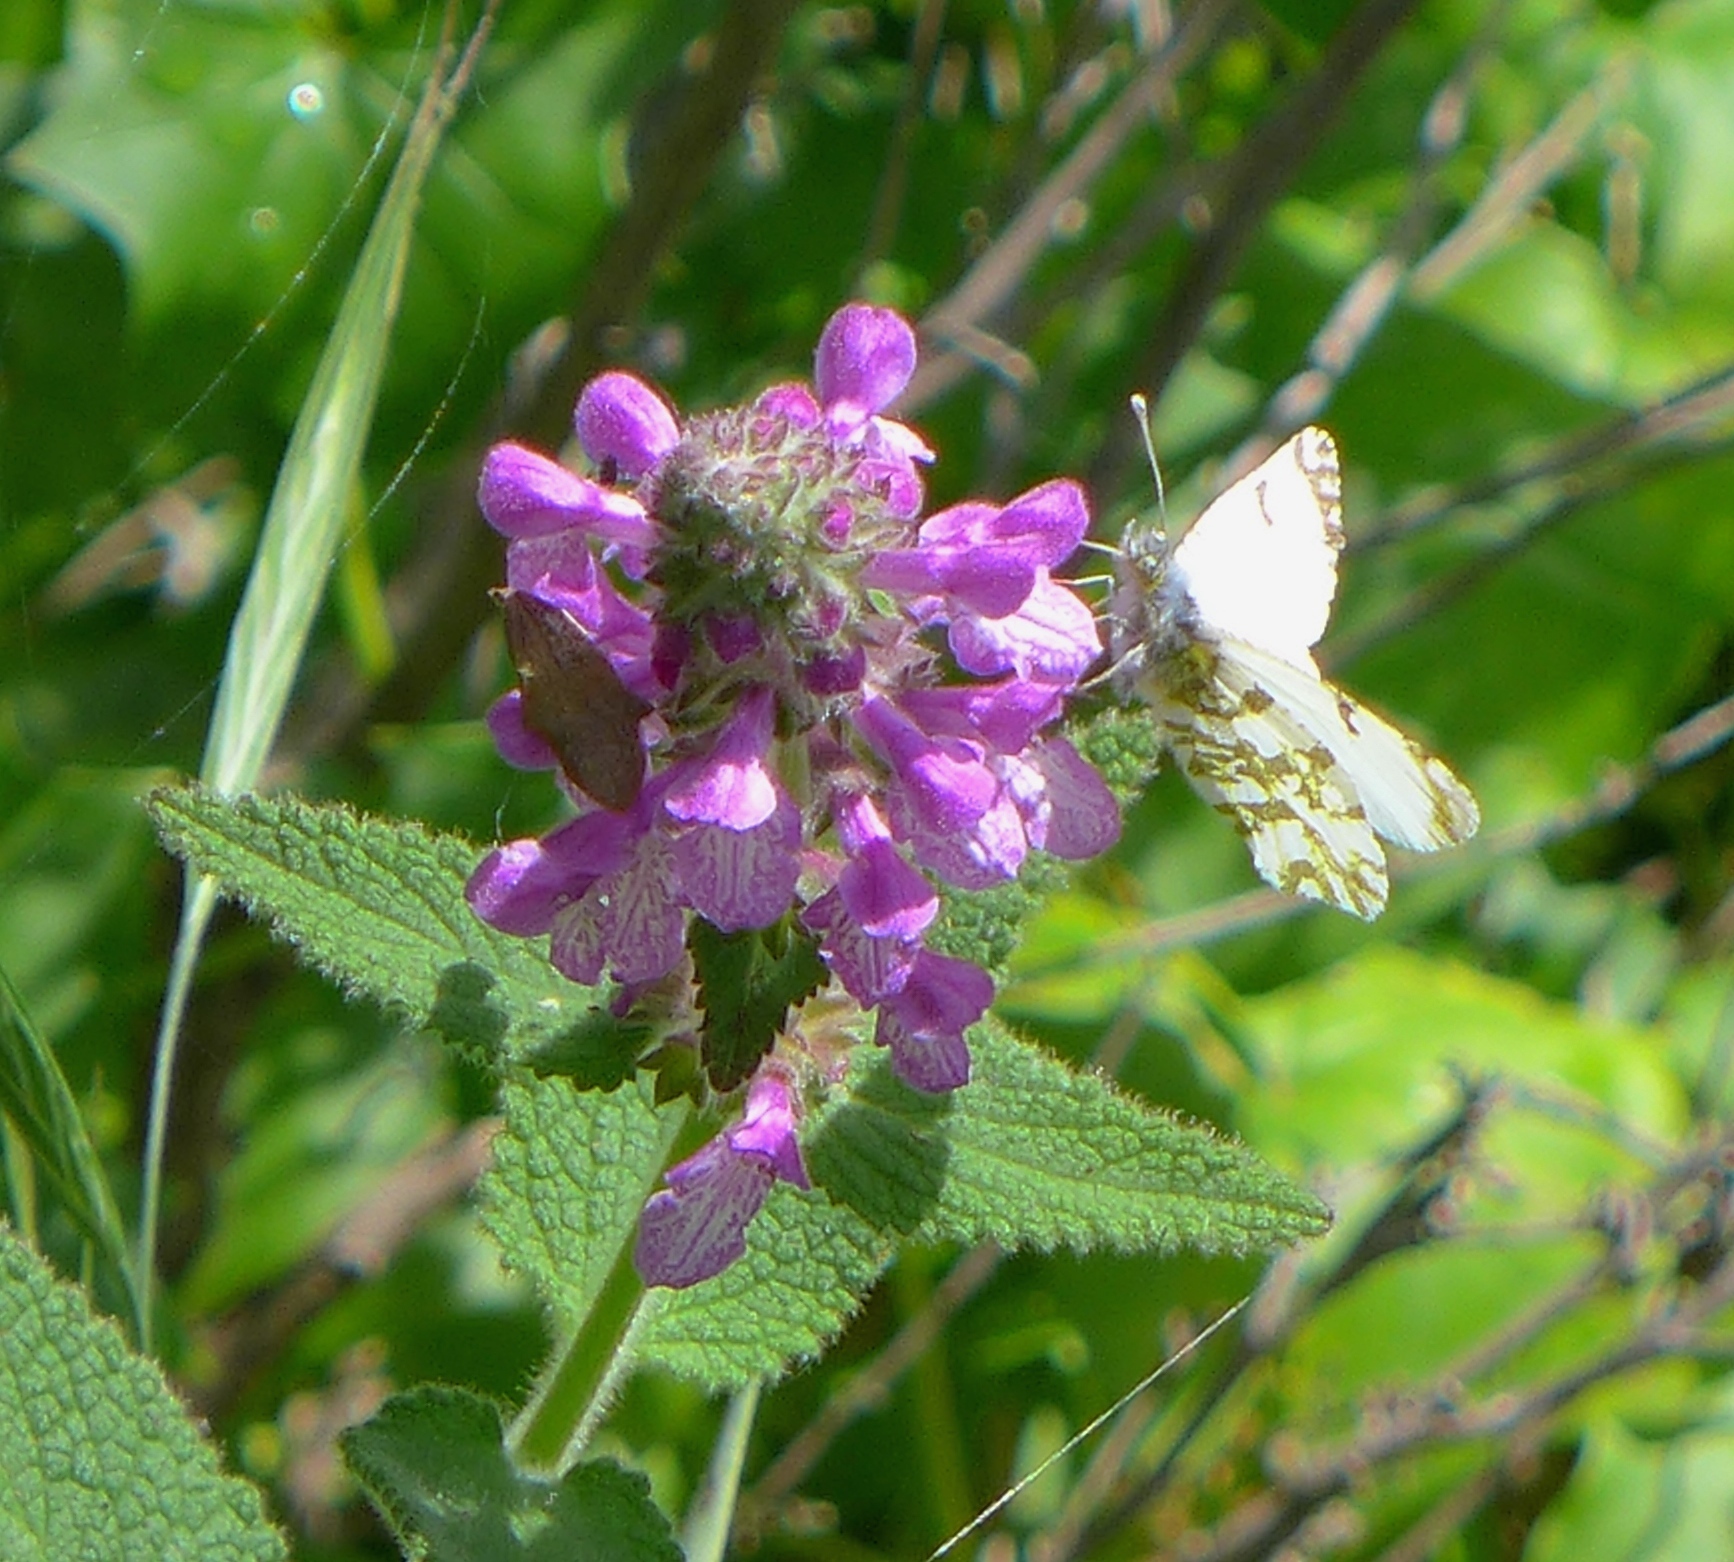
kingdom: Animalia
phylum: Arthropoda
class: Insecta
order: Lepidoptera
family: Pieridae
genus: Euchloe
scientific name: Euchloe ausonides
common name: Creamy marblewing
